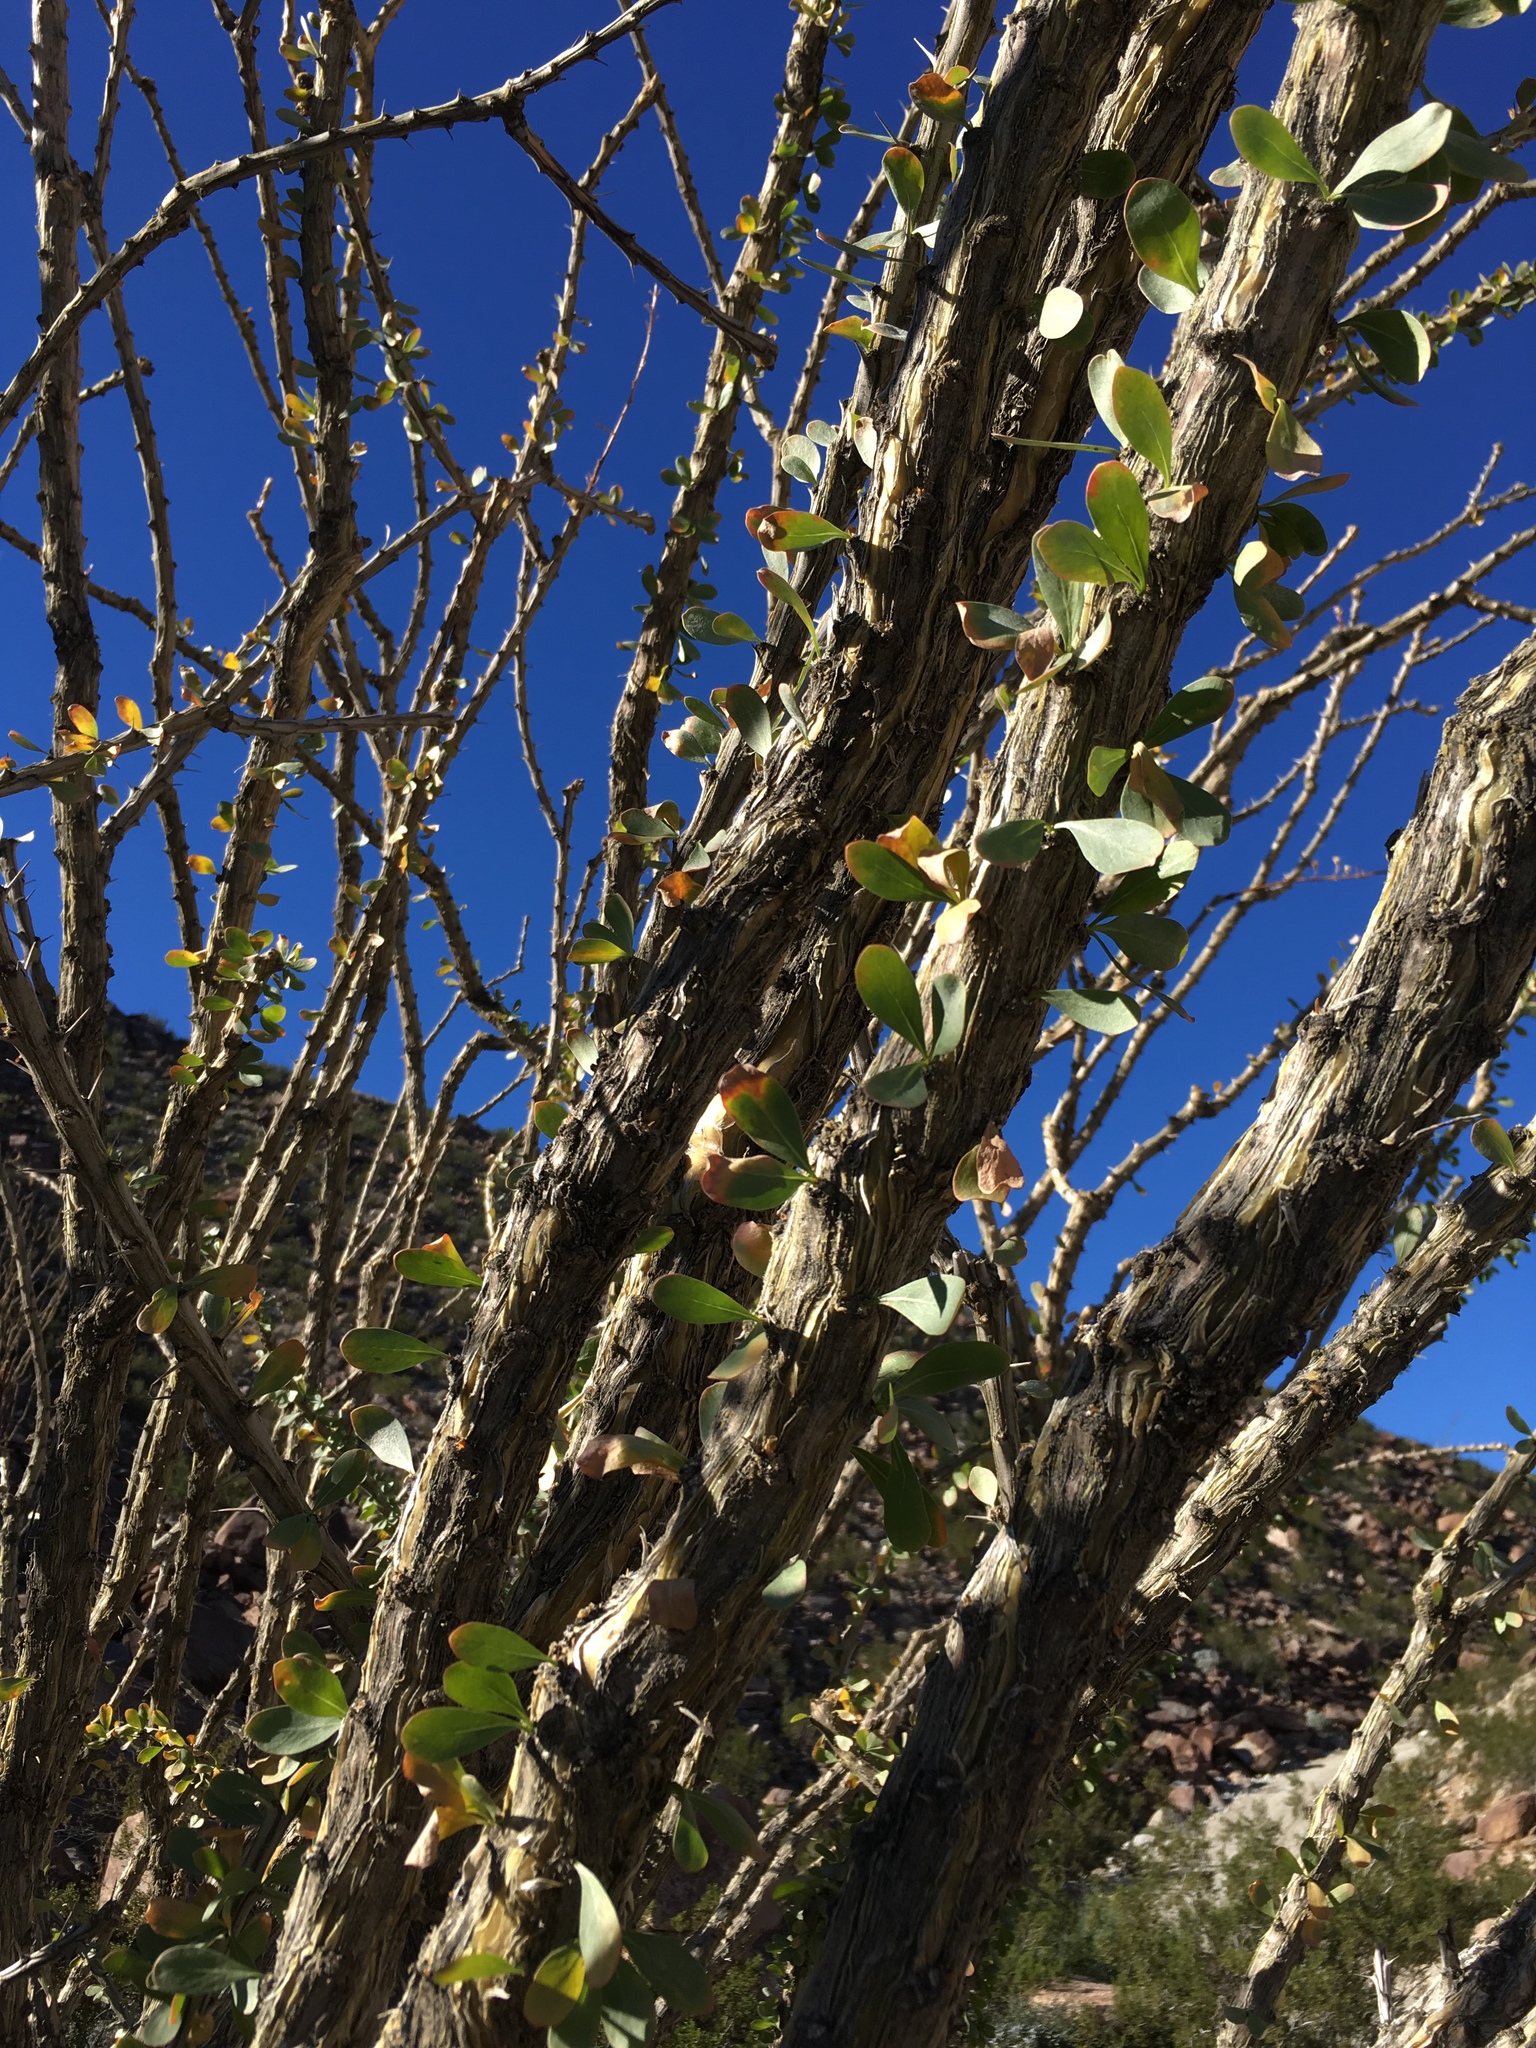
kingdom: Plantae
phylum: Tracheophyta
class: Magnoliopsida
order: Ericales
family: Fouquieriaceae
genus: Fouquieria
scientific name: Fouquieria splendens
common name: Vine-cactus
